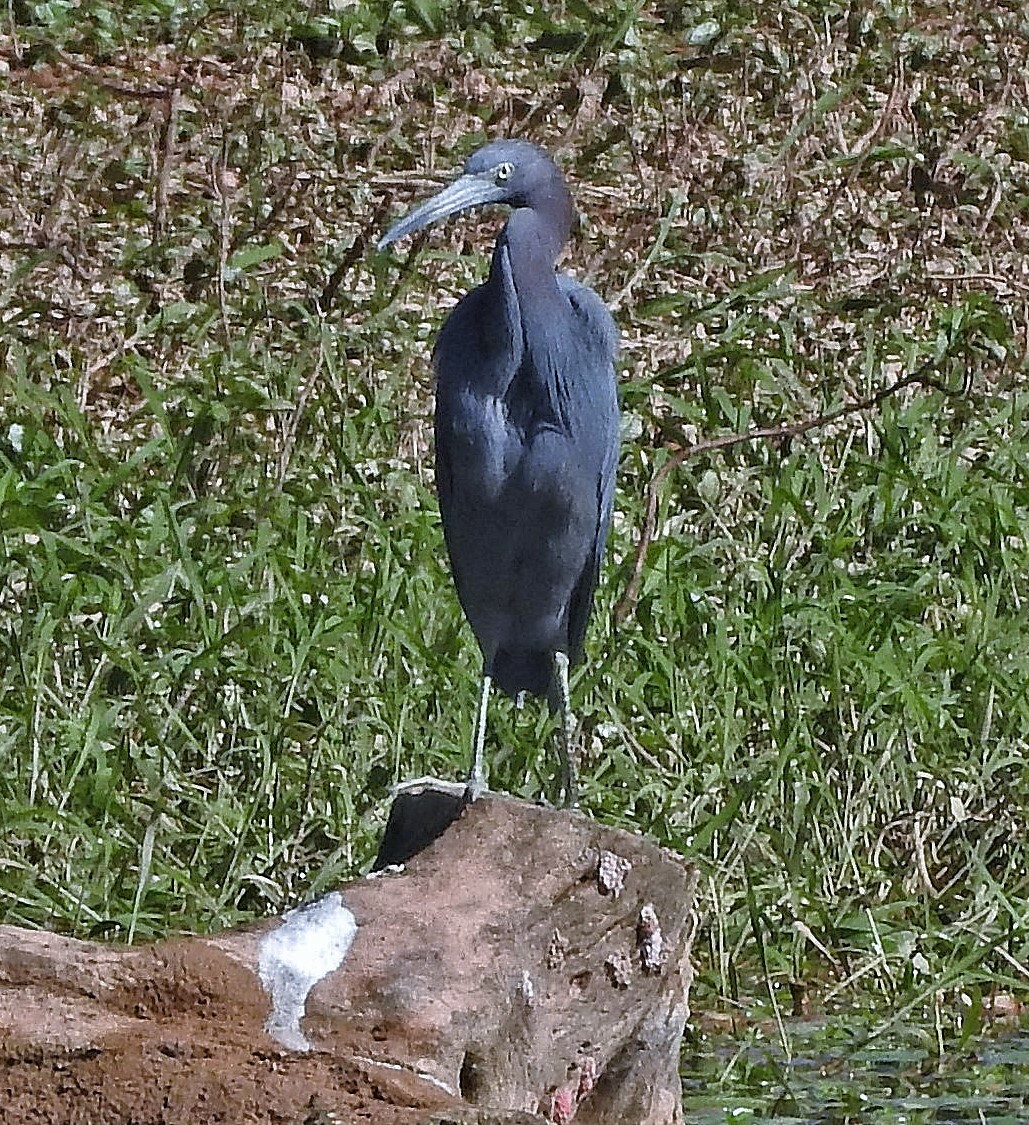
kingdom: Animalia
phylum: Chordata
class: Aves
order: Pelecaniformes
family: Ardeidae
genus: Egretta
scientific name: Egretta caerulea
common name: Little blue heron
